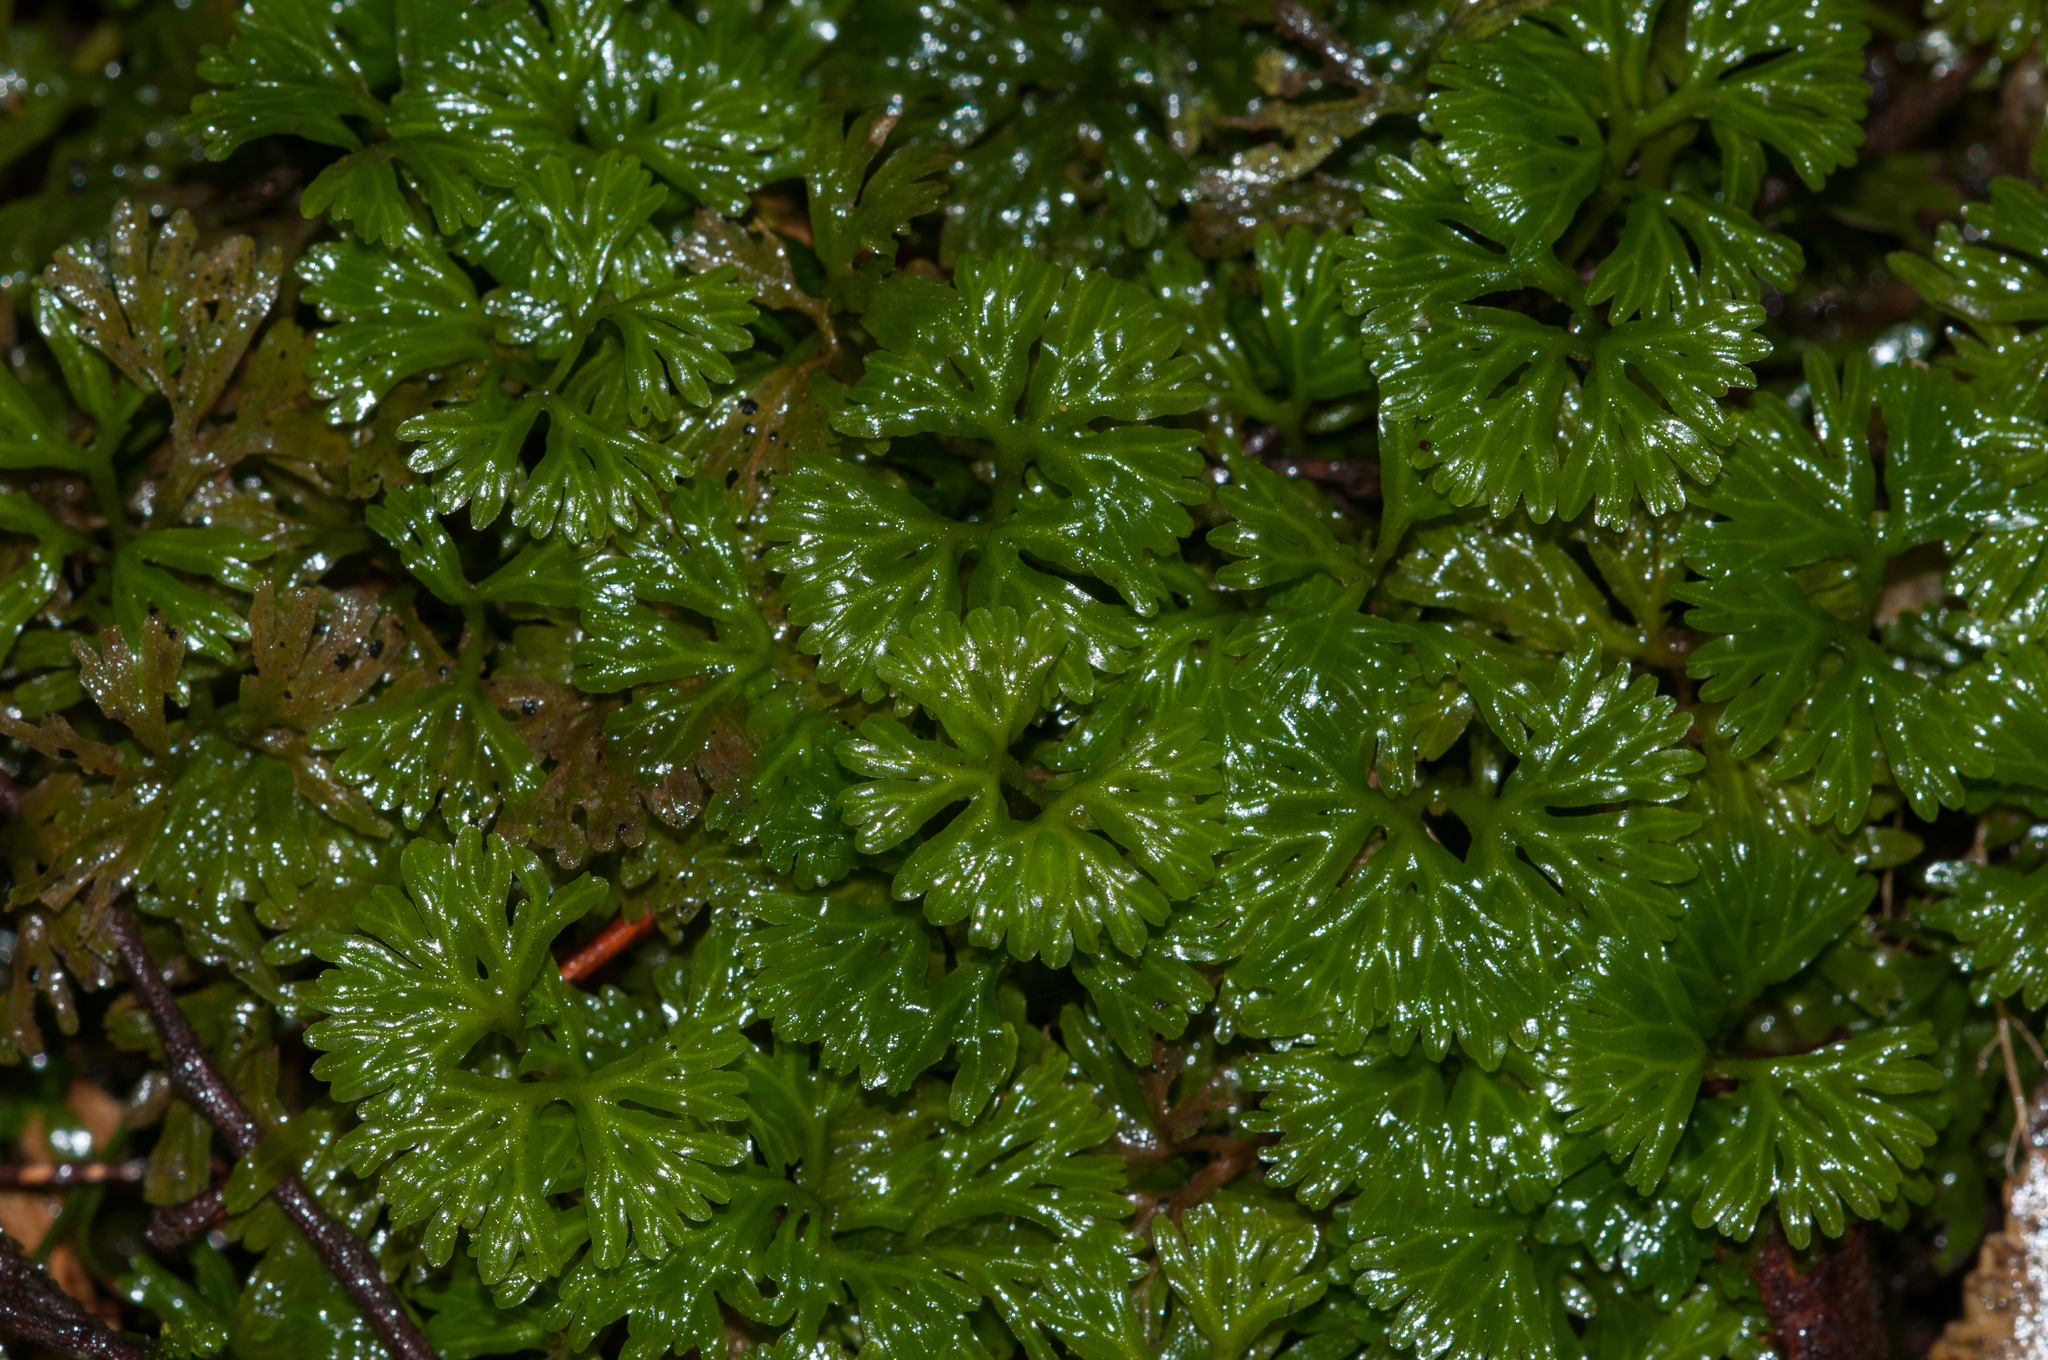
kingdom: Plantae
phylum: Marchantiophyta
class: Jungermanniopsida
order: Pallaviciniales
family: Hymenophytaceae
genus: Hymenophyton
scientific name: Hymenophyton flabellatum
